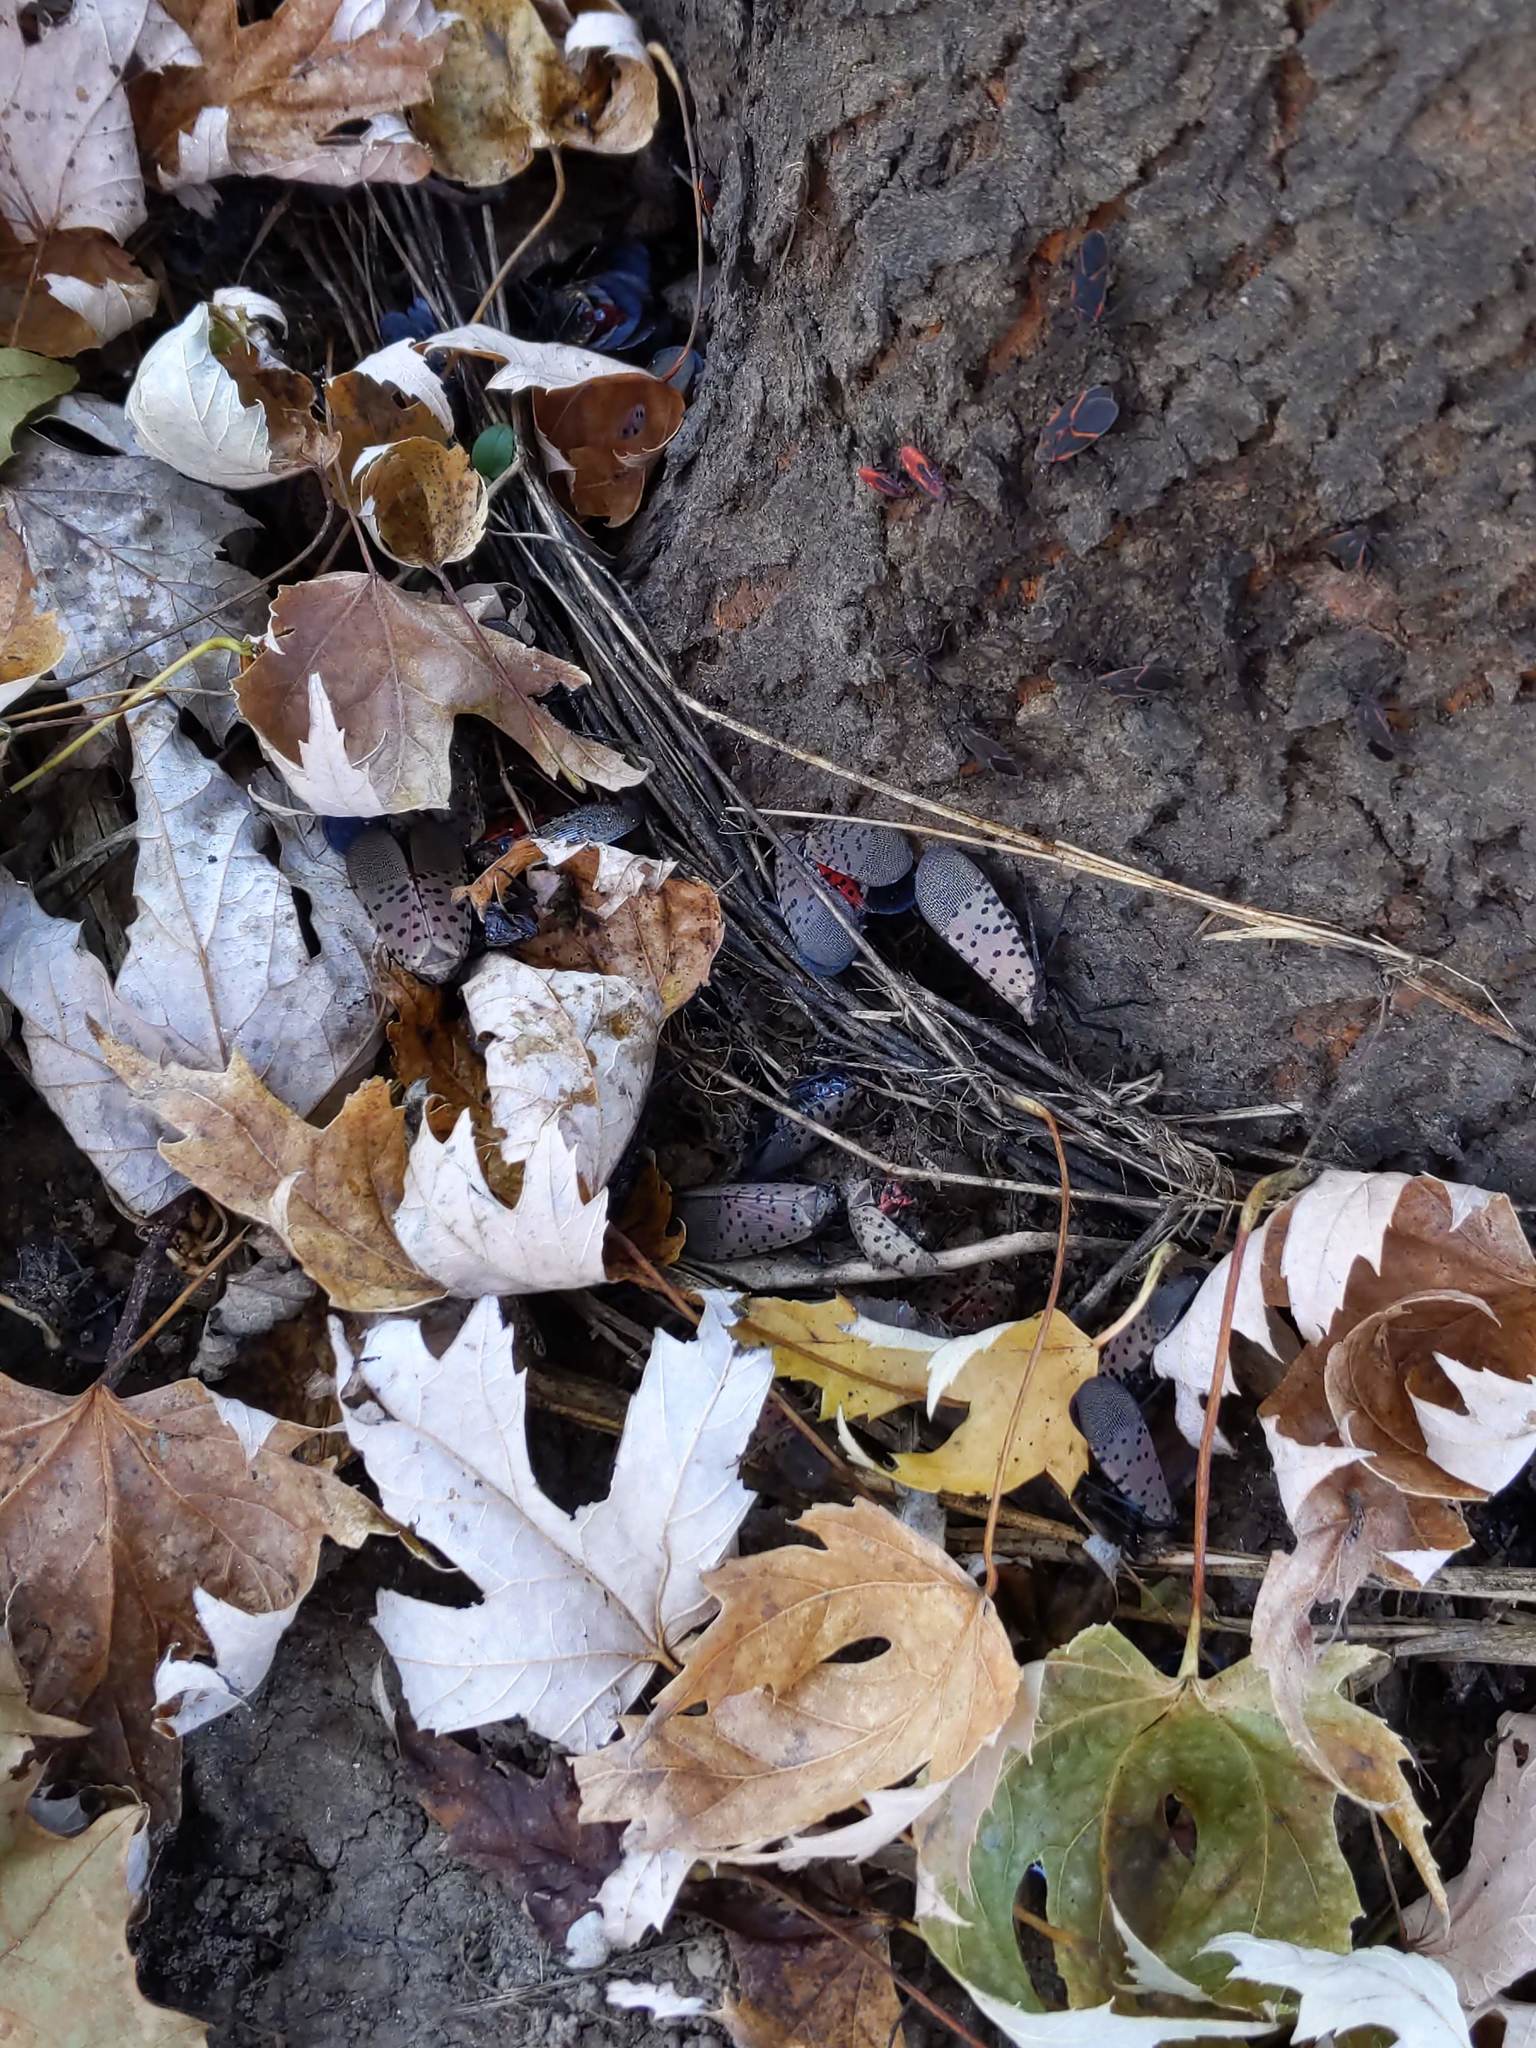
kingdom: Animalia
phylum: Arthropoda
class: Insecta
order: Hemiptera
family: Fulgoridae
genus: Lycorma
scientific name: Lycorma delicatula
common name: Spotted lanternfly
